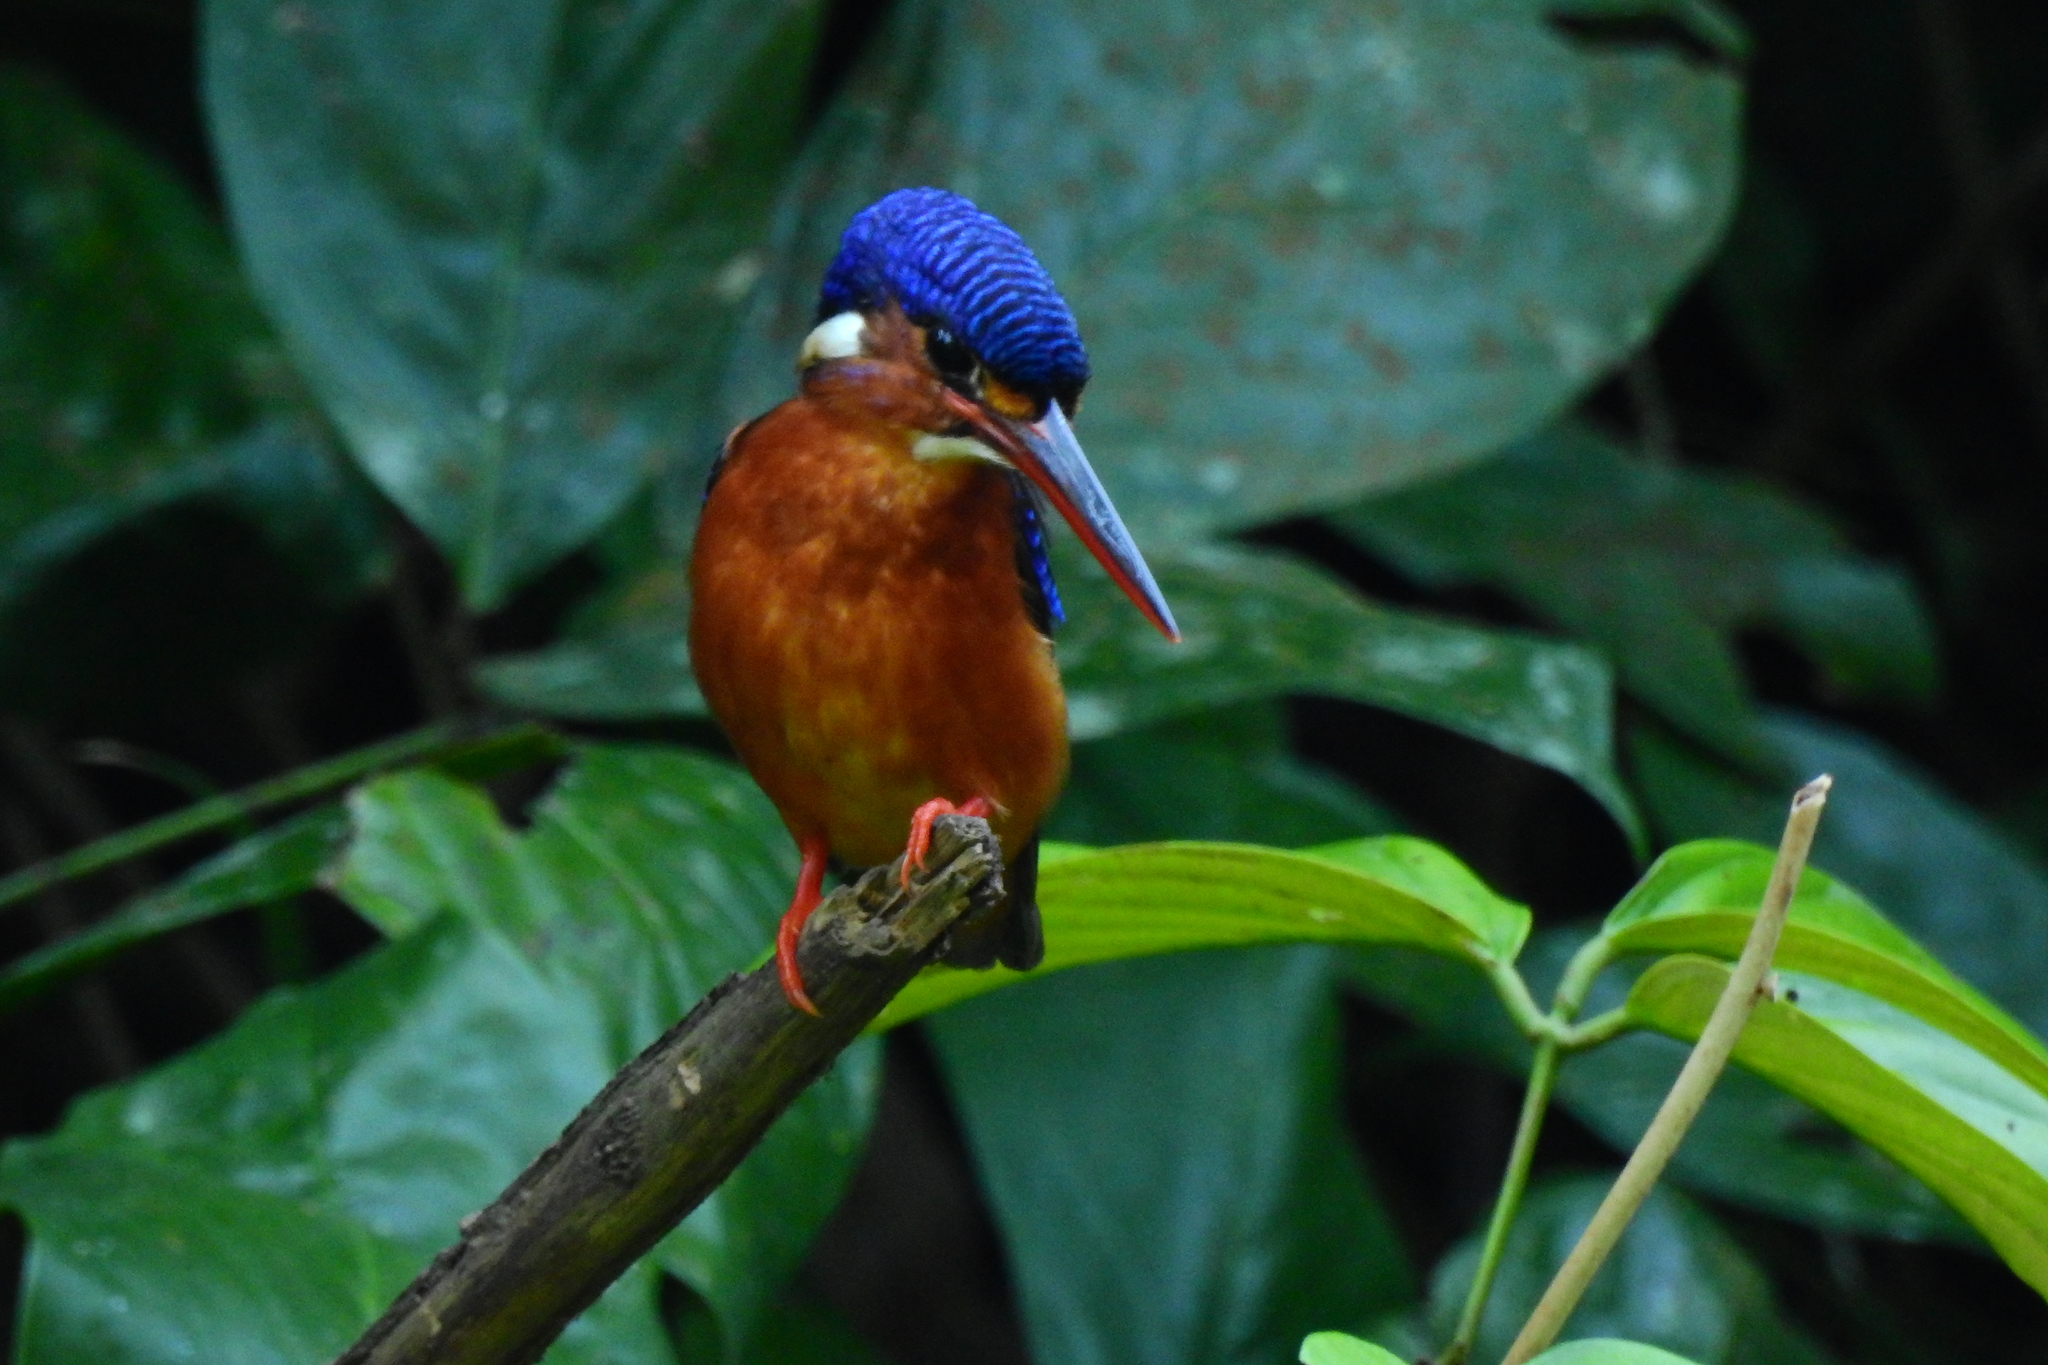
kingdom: Animalia
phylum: Chordata
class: Aves
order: Coraciiformes
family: Alcedinidae
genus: Alcedo
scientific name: Alcedo meninting
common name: Blue-eared kingfisher
